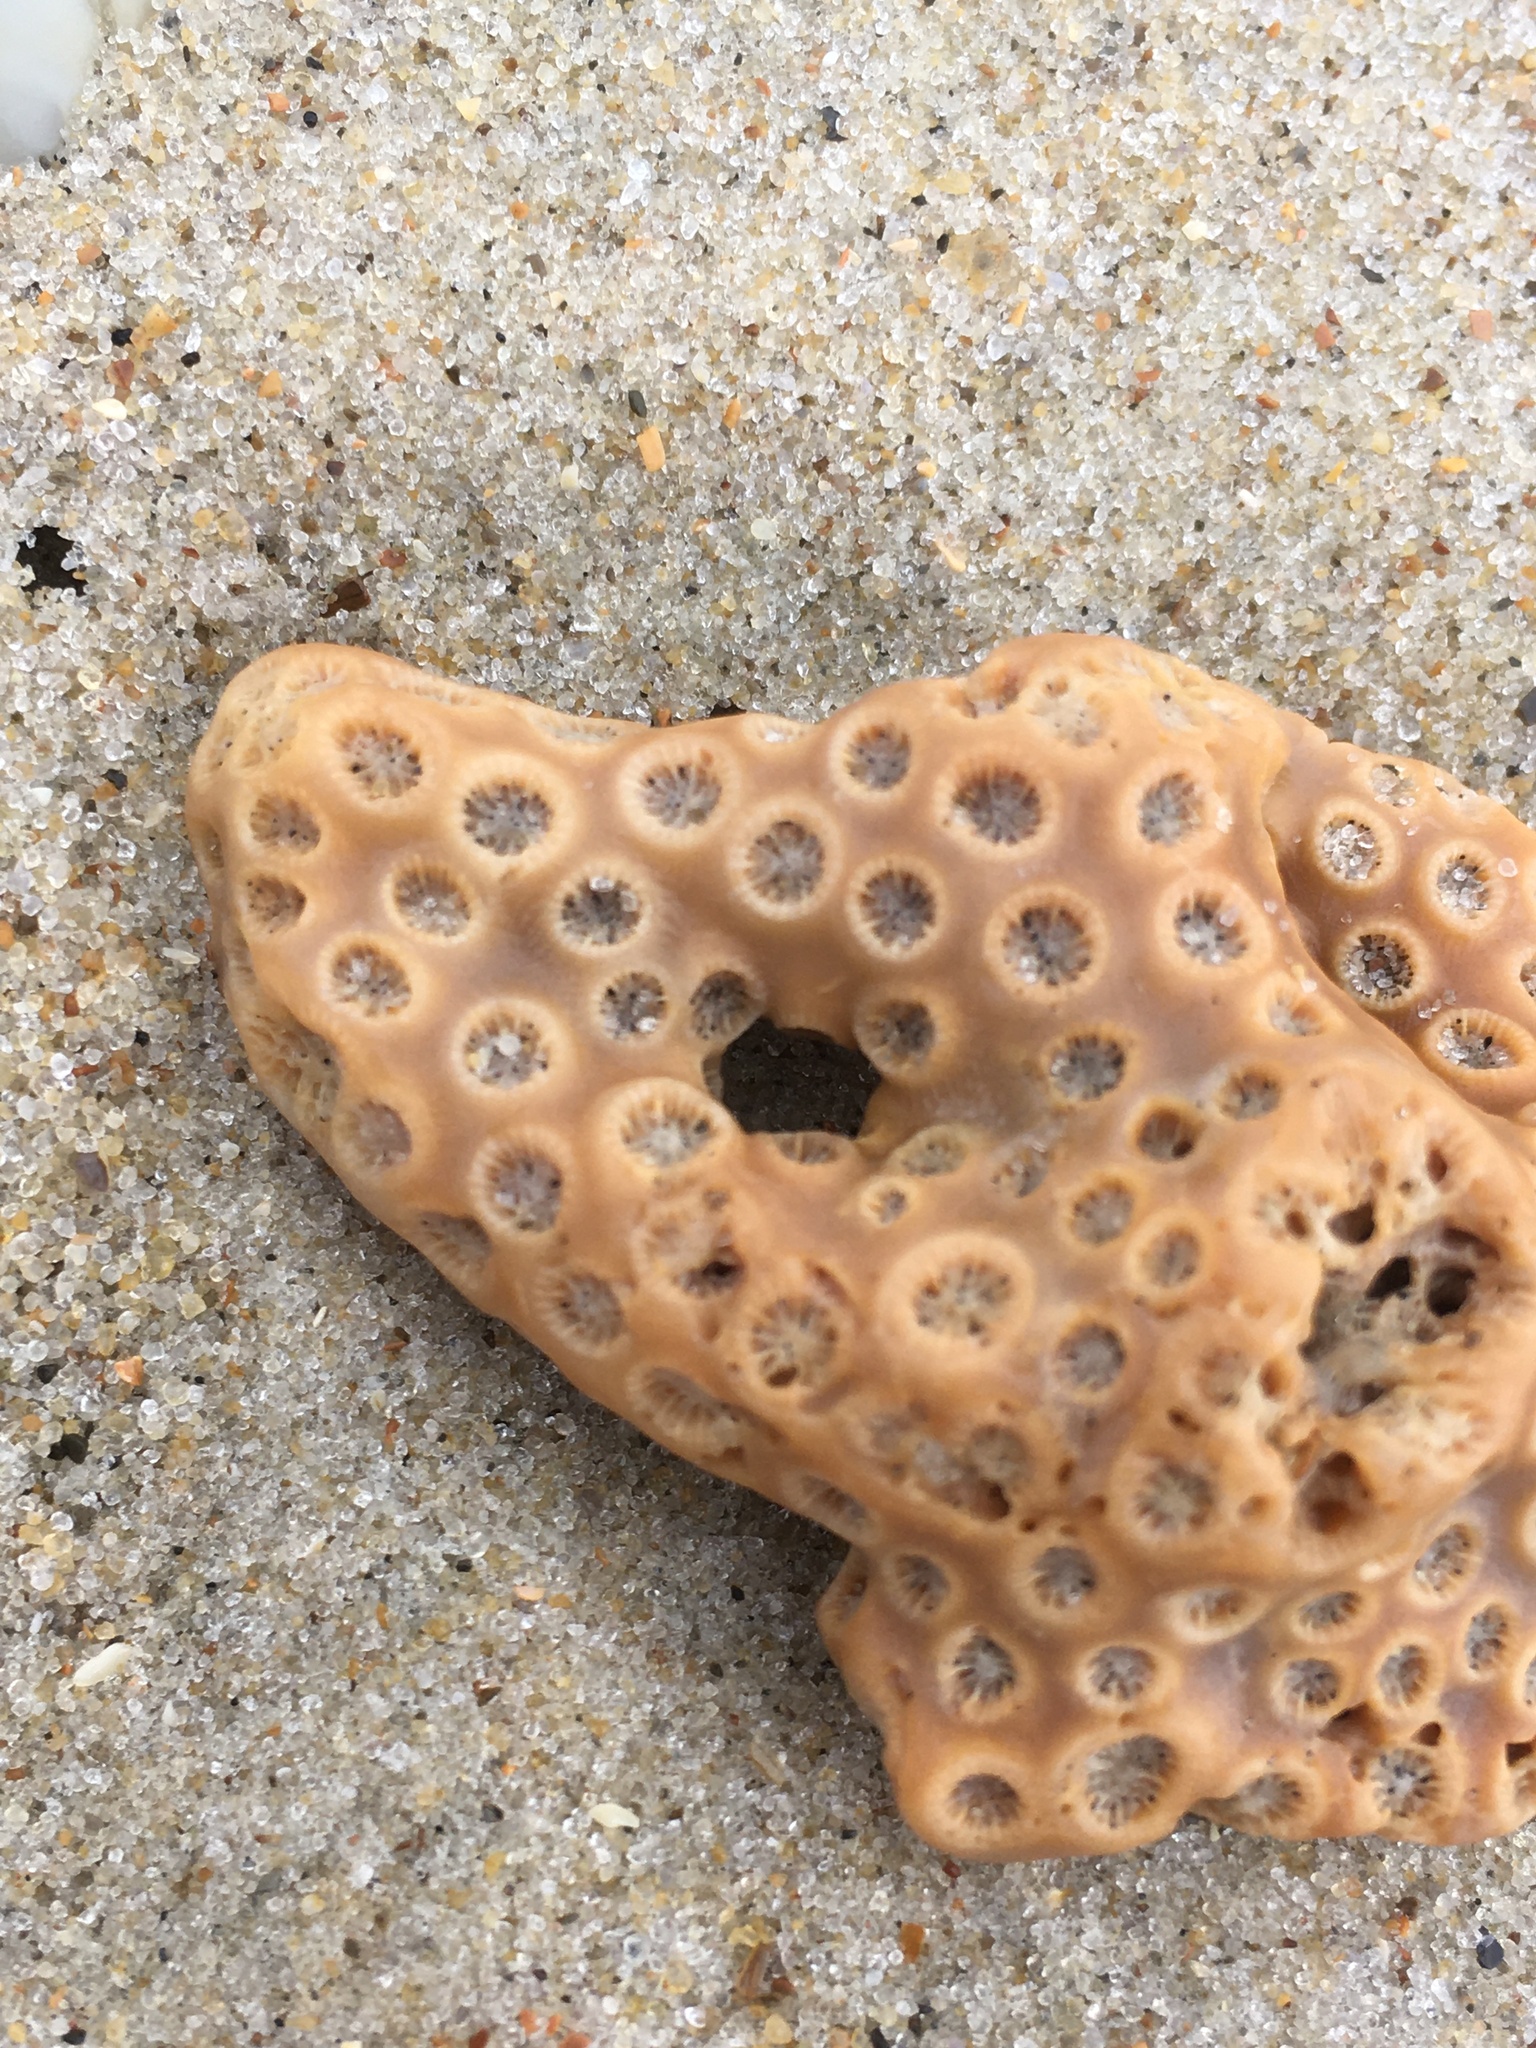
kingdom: Animalia
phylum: Cnidaria
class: Anthozoa
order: Scleractinia
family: Astrangiidae
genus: Astrangia
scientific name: Astrangia poculata
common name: Northern star coral
